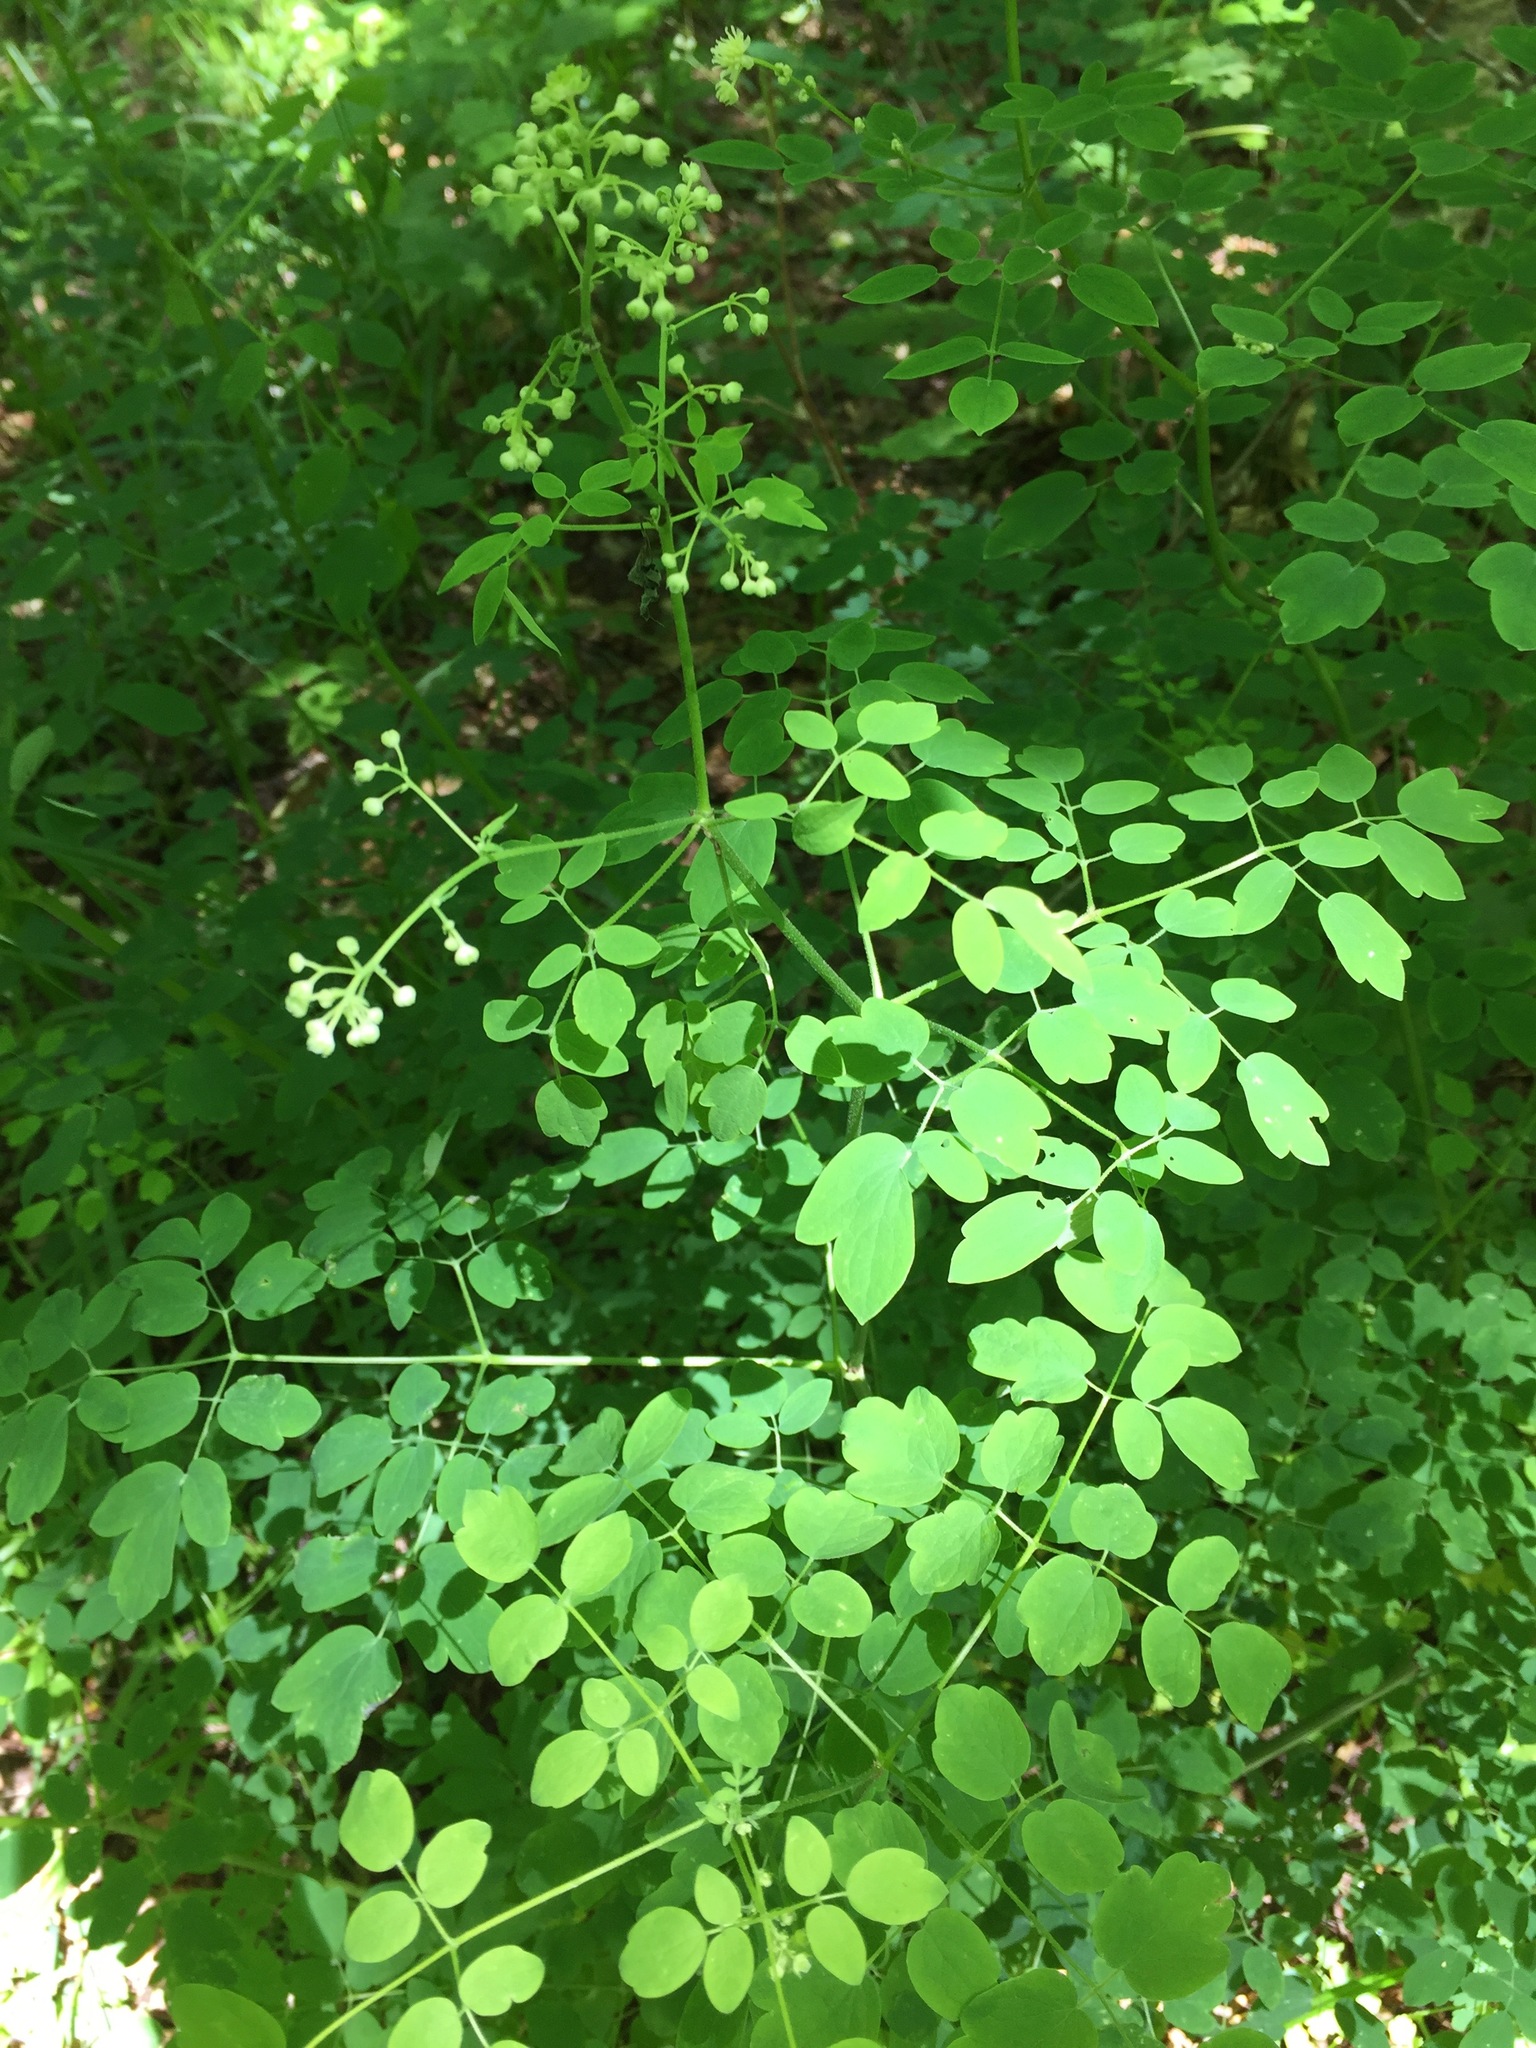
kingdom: Plantae
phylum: Tracheophyta
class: Magnoliopsida
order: Ranunculales
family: Ranunculaceae
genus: Thalictrum
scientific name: Thalictrum pubescens
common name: King-of-the-meadow
